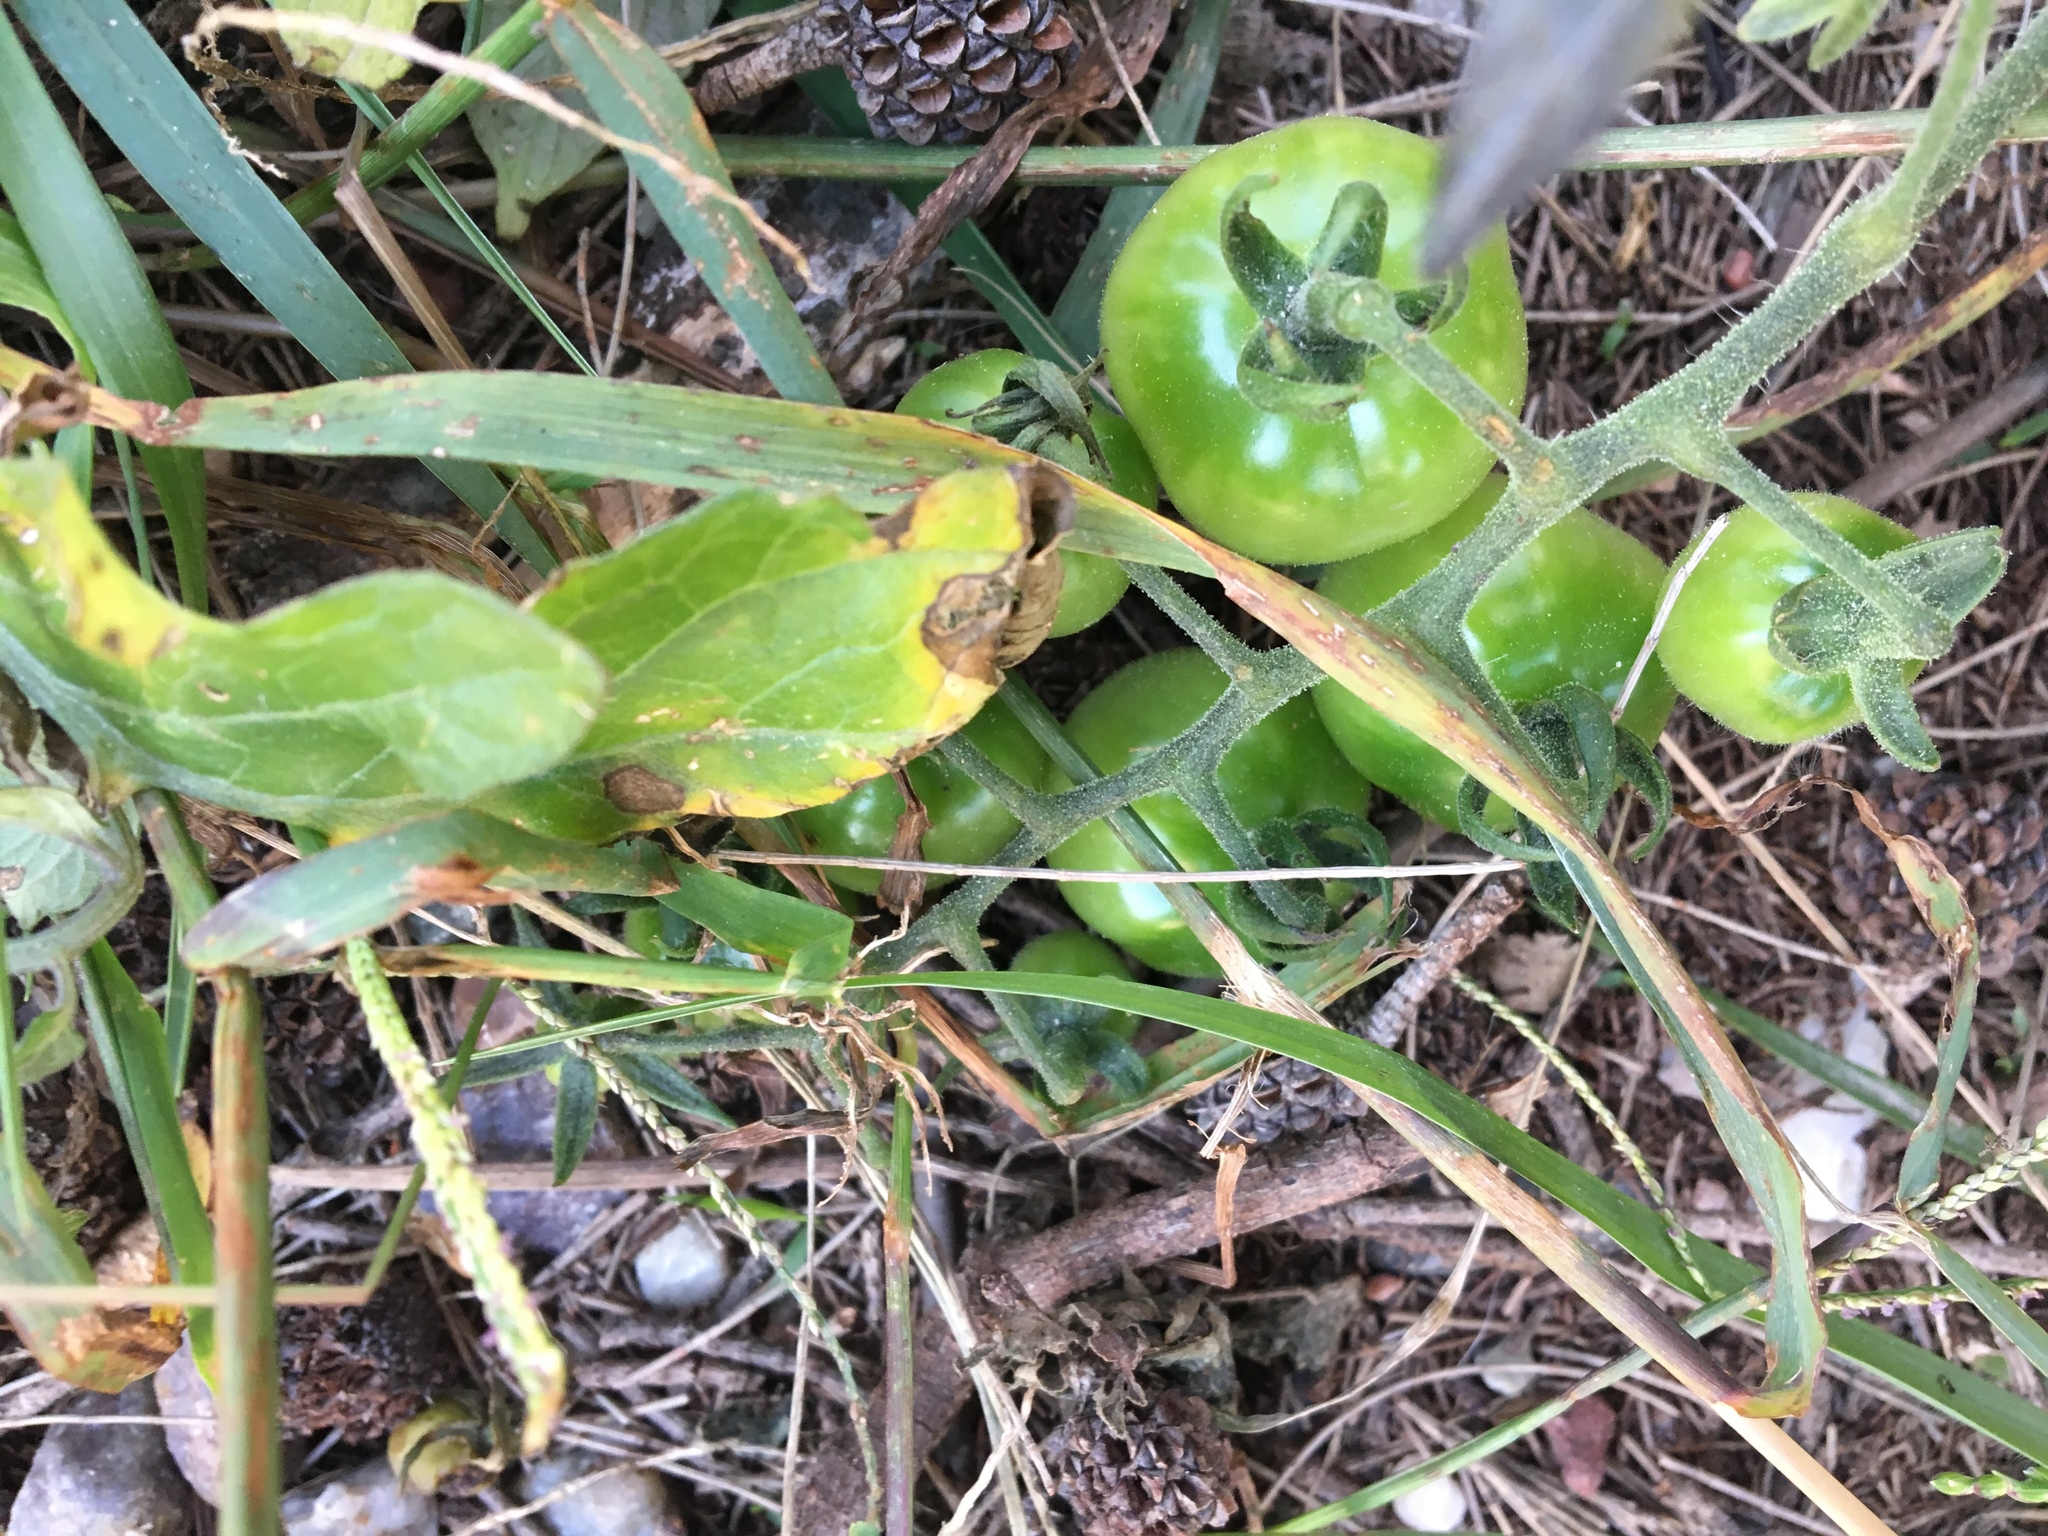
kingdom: Plantae
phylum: Tracheophyta
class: Magnoliopsida
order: Solanales
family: Solanaceae
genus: Solanum
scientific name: Solanum lycopersicum
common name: Garden tomato
